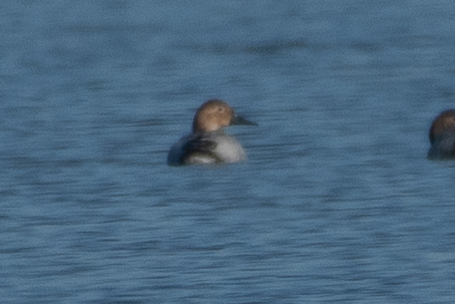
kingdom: Animalia
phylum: Chordata
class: Aves
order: Anseriformes
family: Anatidae
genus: Aythya
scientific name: Aythya valisineria
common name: Canvasback
